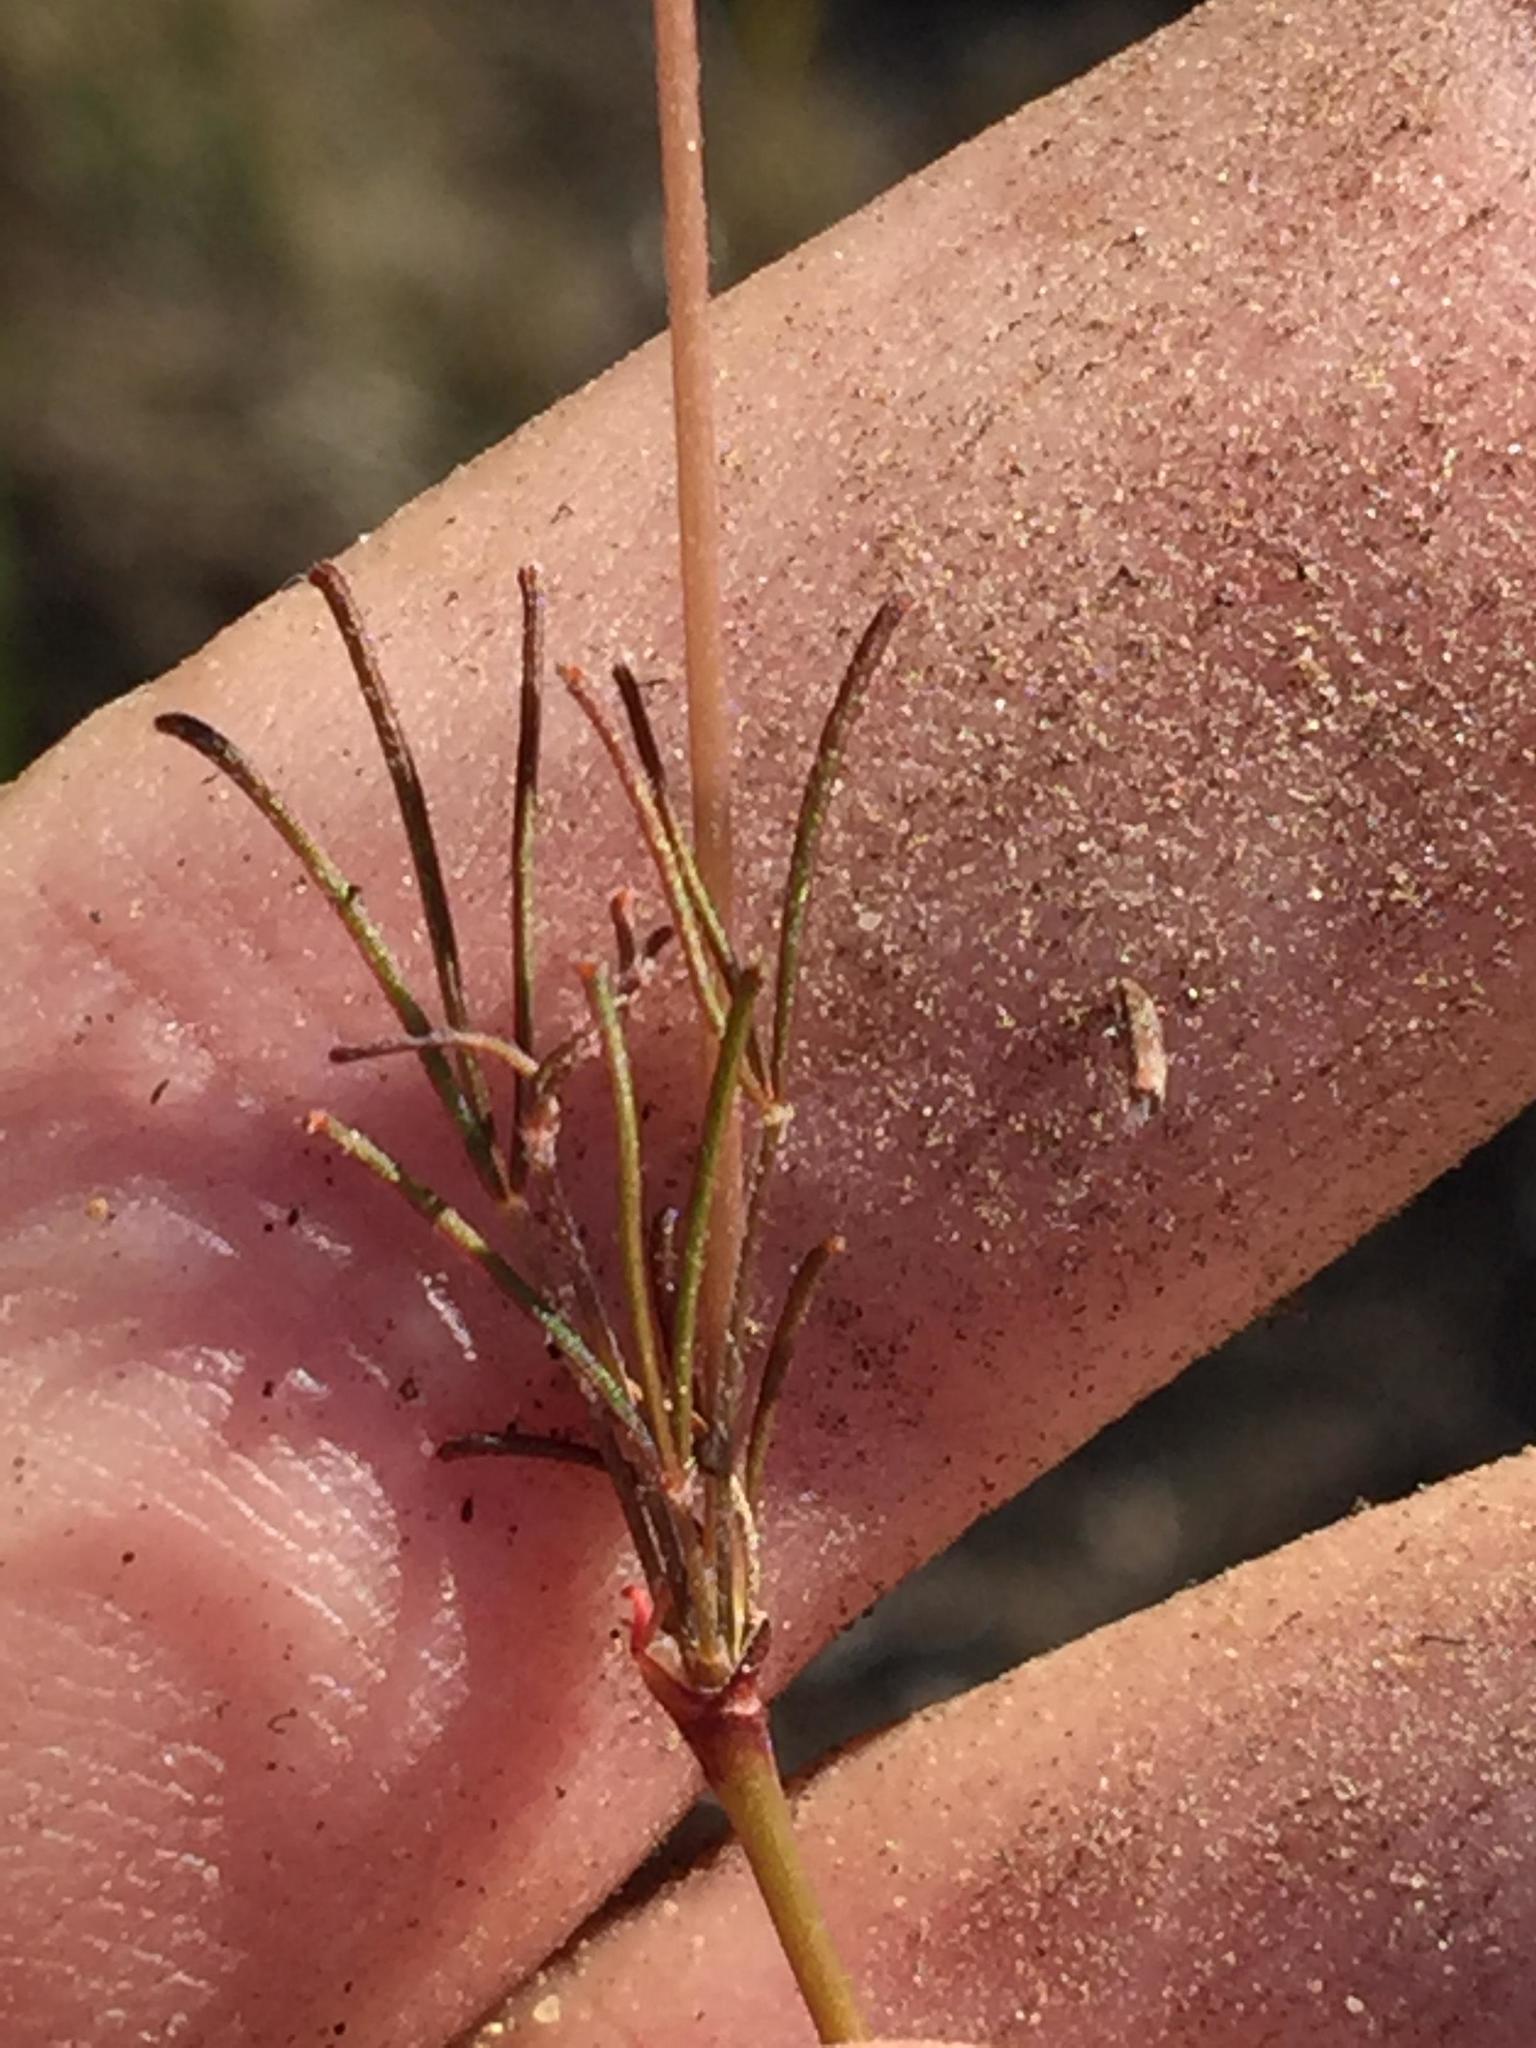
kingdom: Plantae
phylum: Tracheophyta
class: Magnoliopsida
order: Oxalidales
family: Oxalidaceae
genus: Oxalis
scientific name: Oxalis polyphylla
